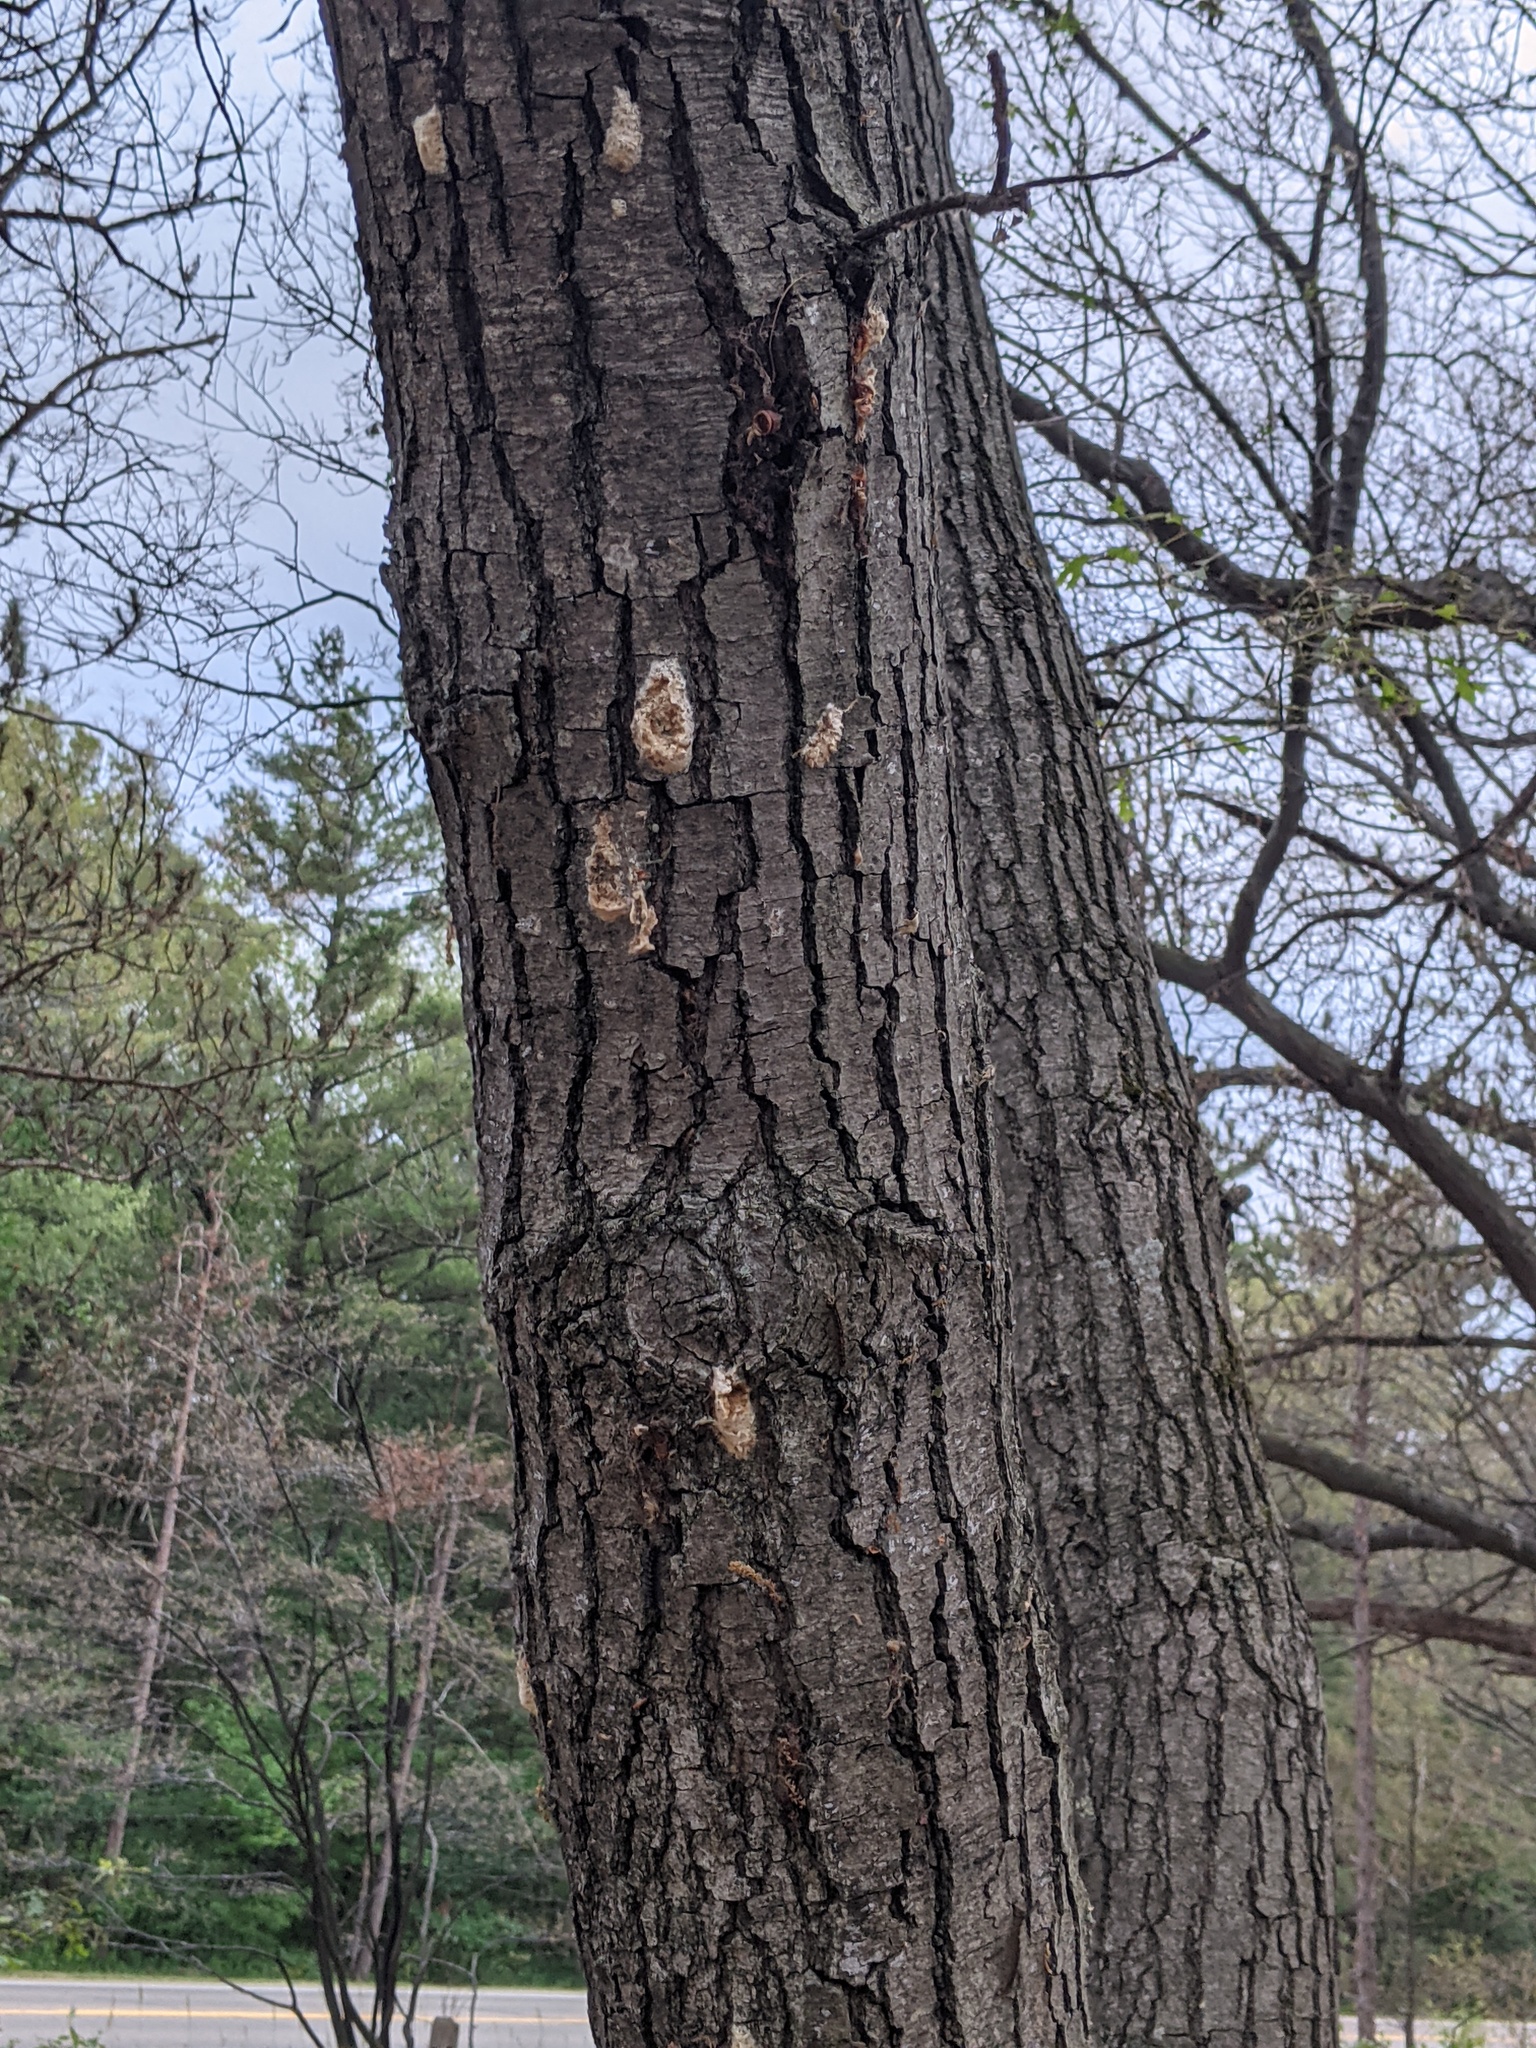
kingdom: Animalia
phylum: Arthropoda
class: Insecta
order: Lepidoptera
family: Erebidae
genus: Lymantria
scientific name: Lymantria dispar
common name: Gypsy moth
